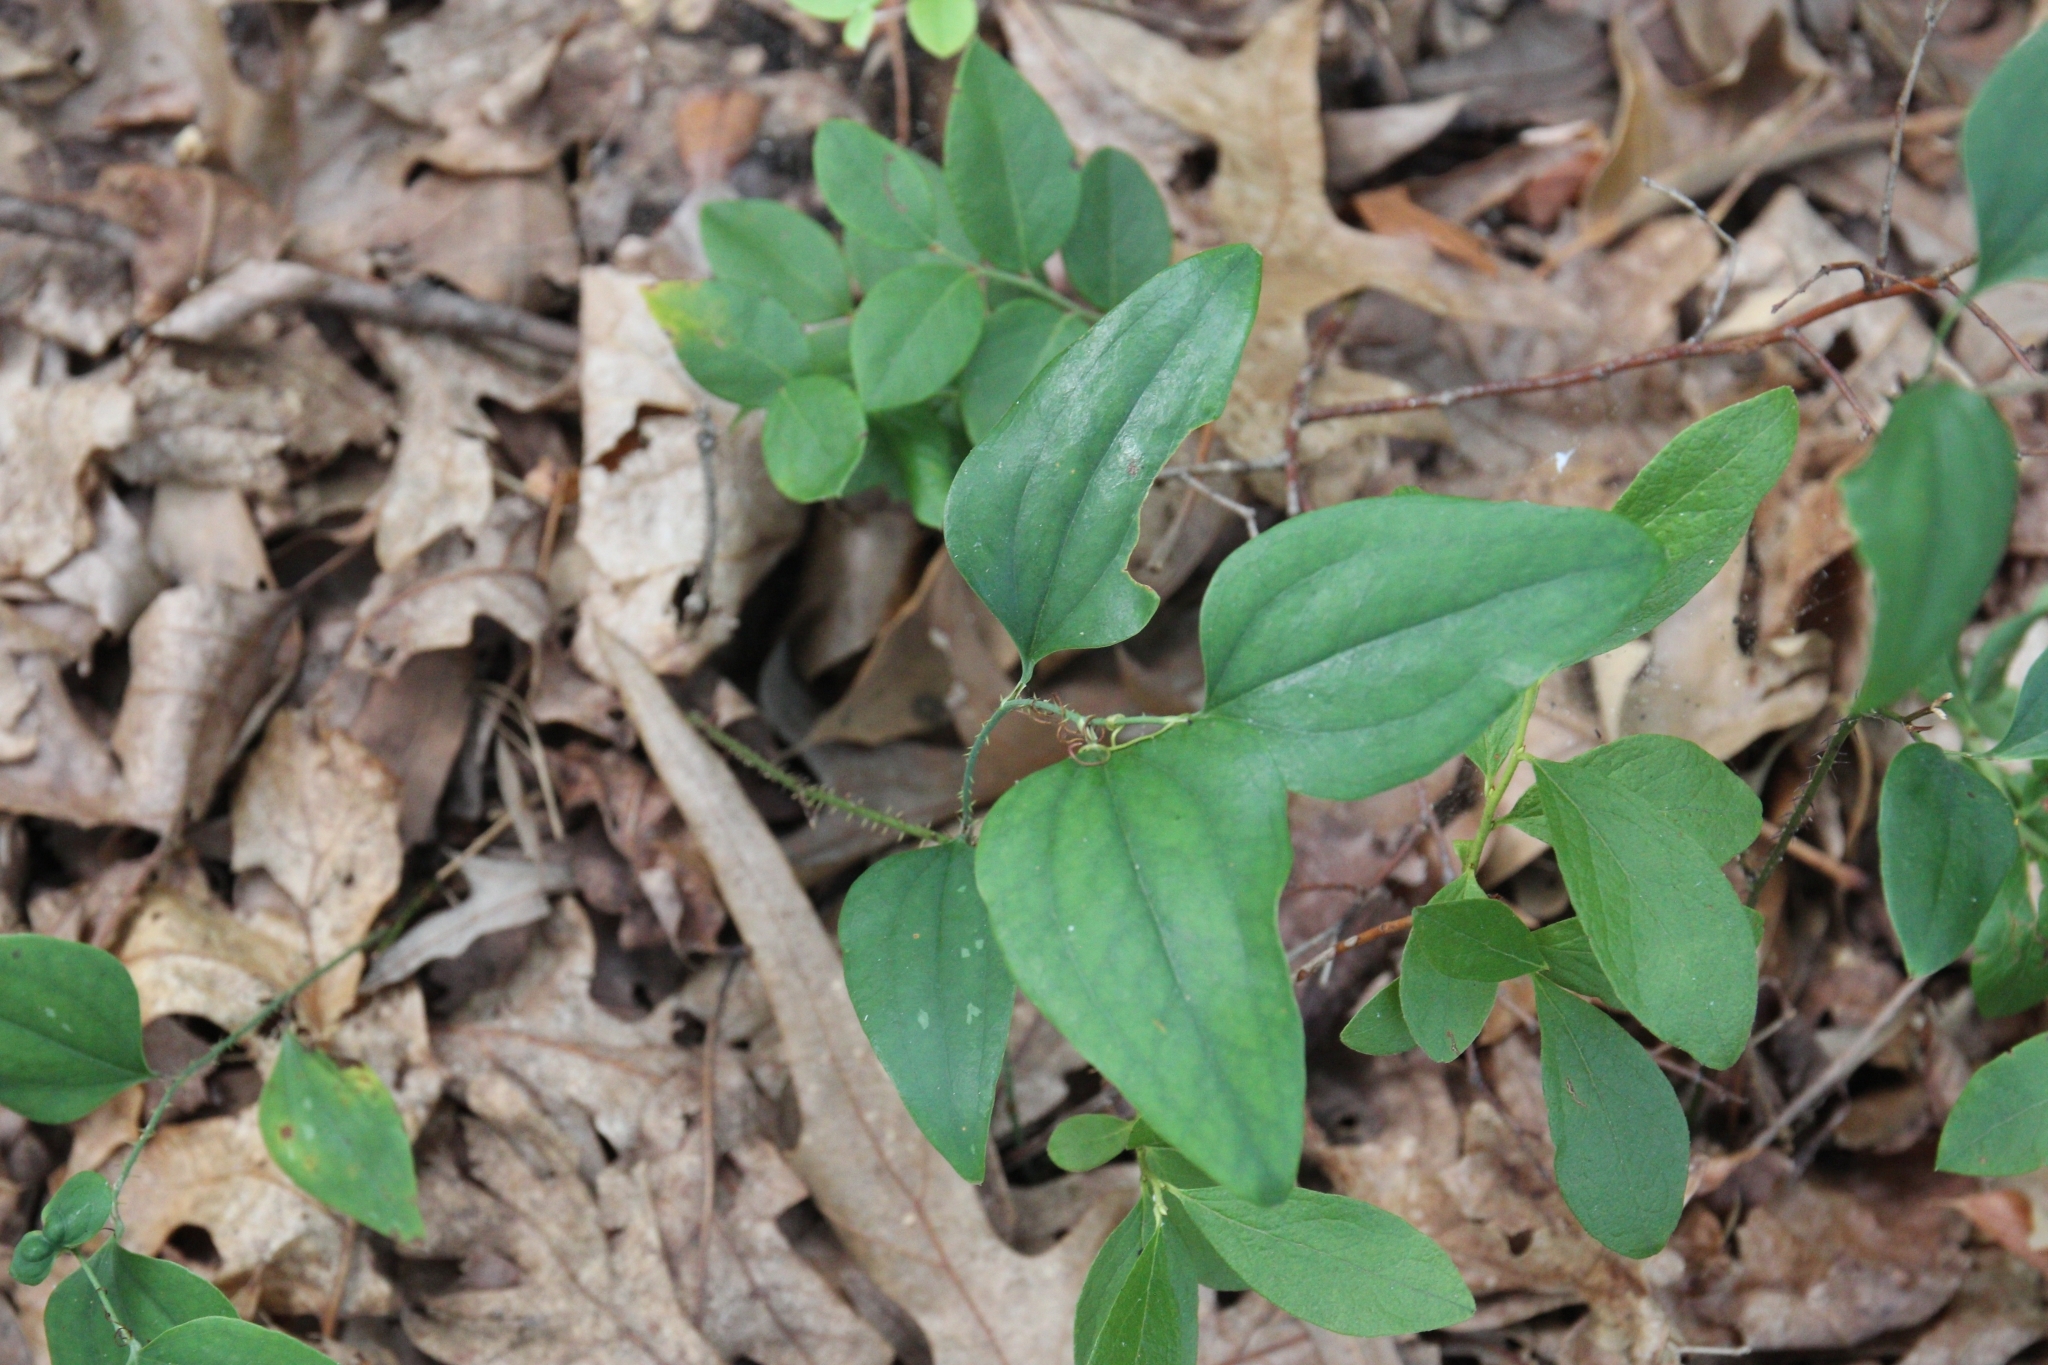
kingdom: Plantae
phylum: Tracheophyta
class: Liliopsida
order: Liliales
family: Smilacaceae
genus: Smilax
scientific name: Smilax glauca
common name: Cat greenbrier
